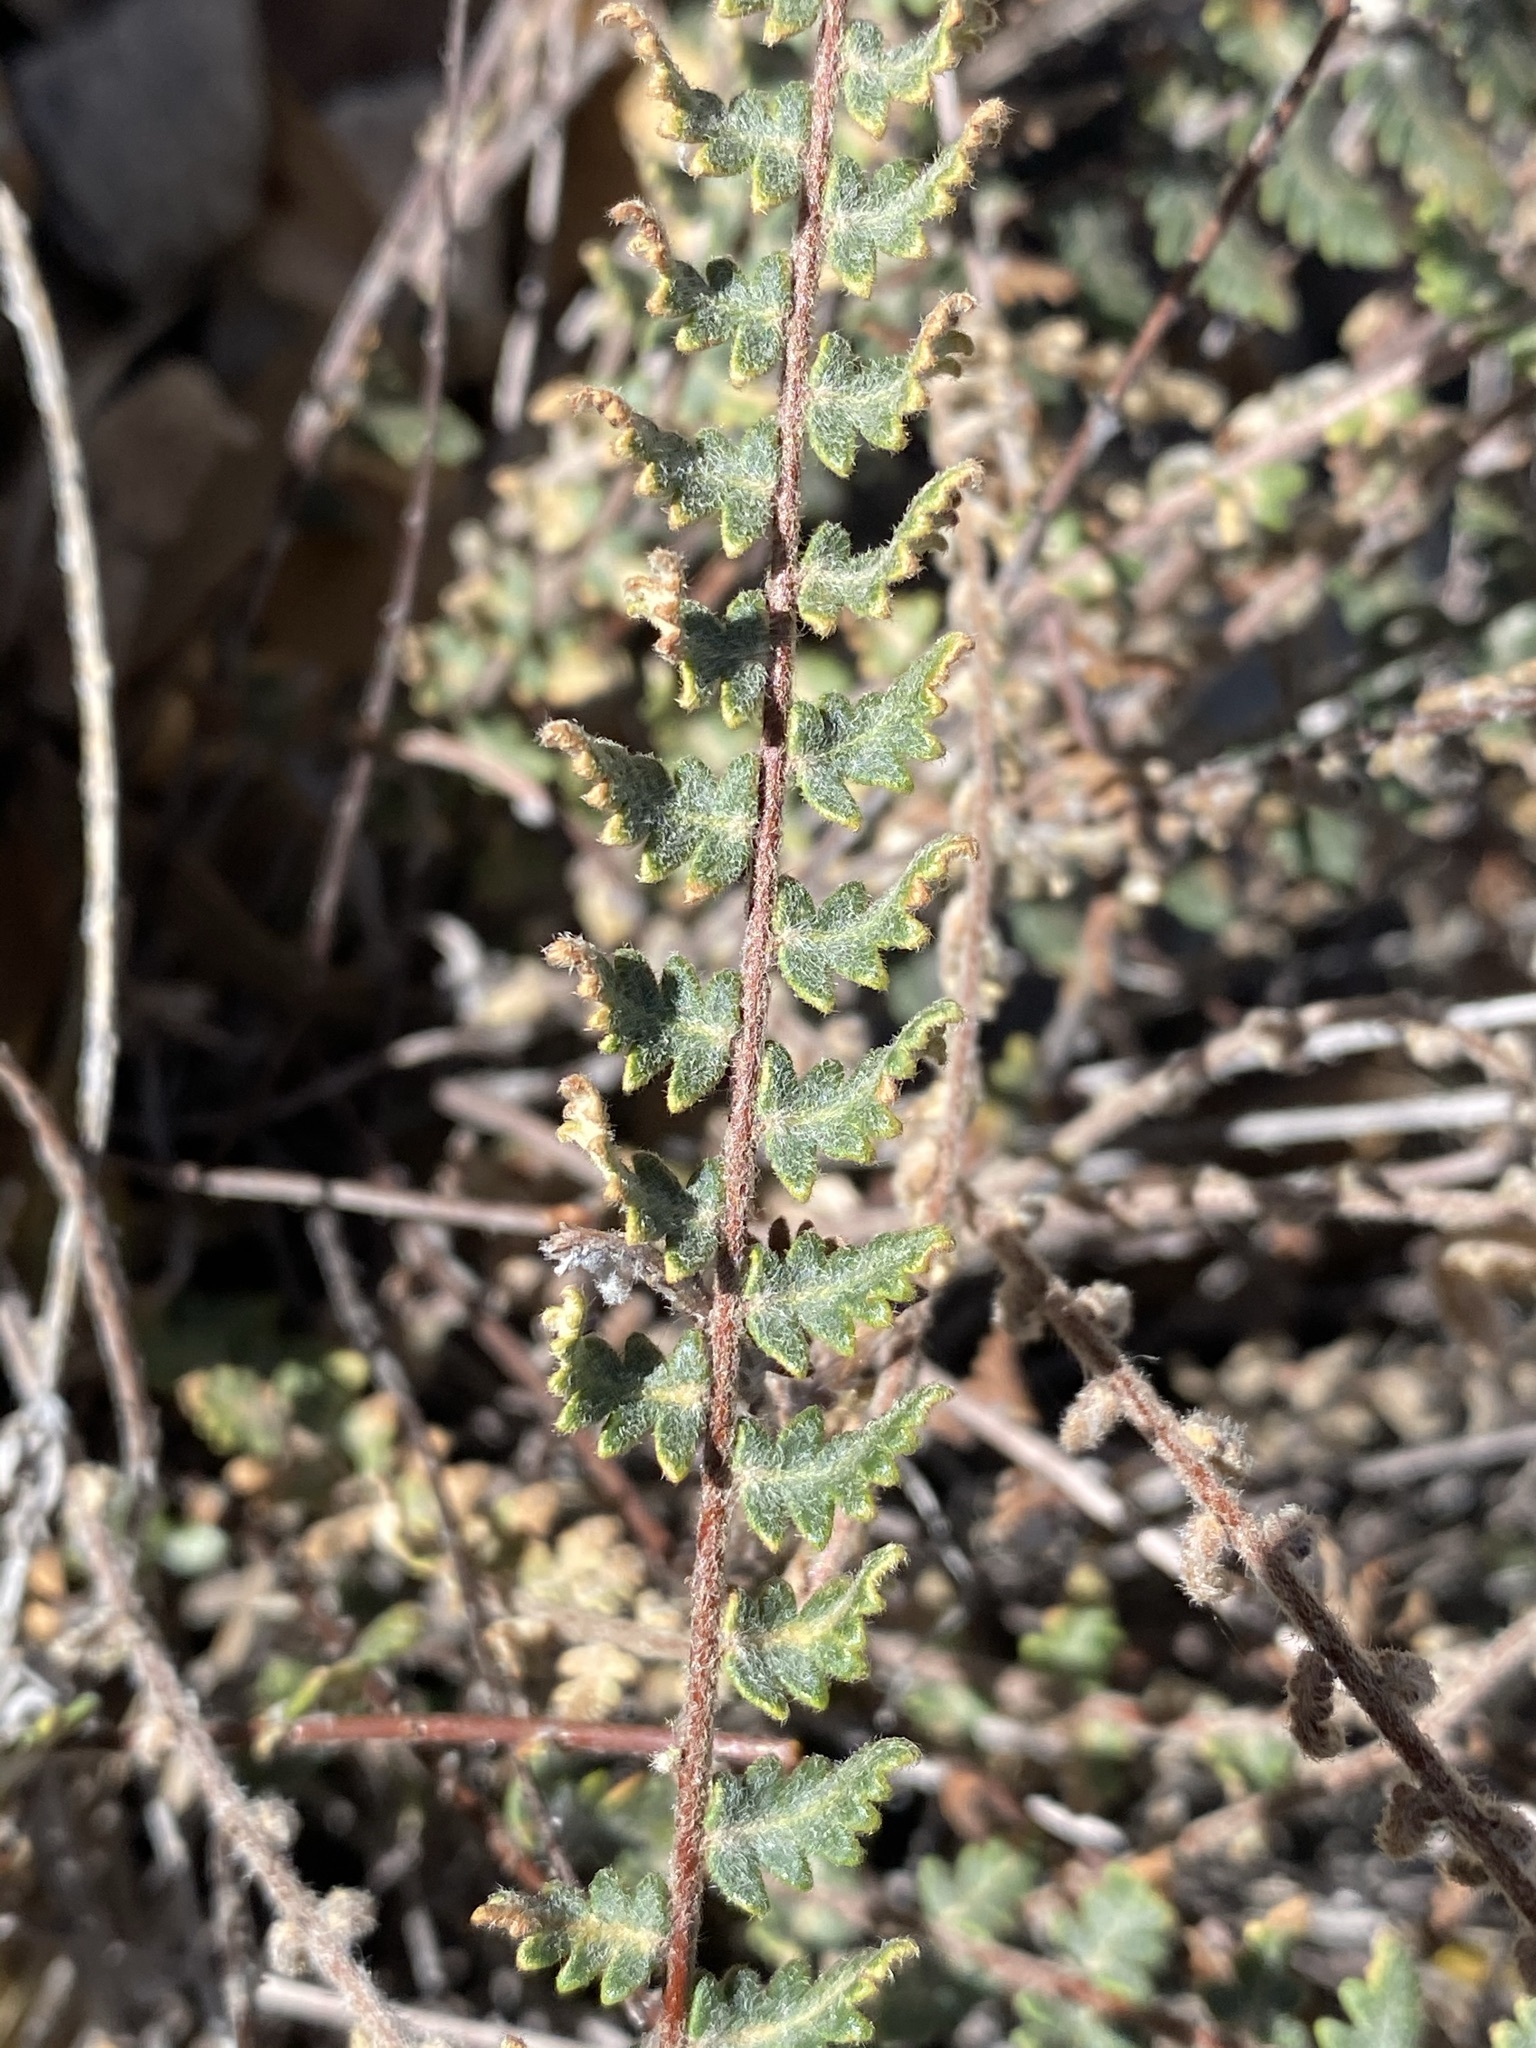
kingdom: Plantae
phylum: Tracheophyta
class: Polypodiopsida
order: Polypodiales
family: Pteridaceae
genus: Myriopteris
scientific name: Myriopteris aurea
